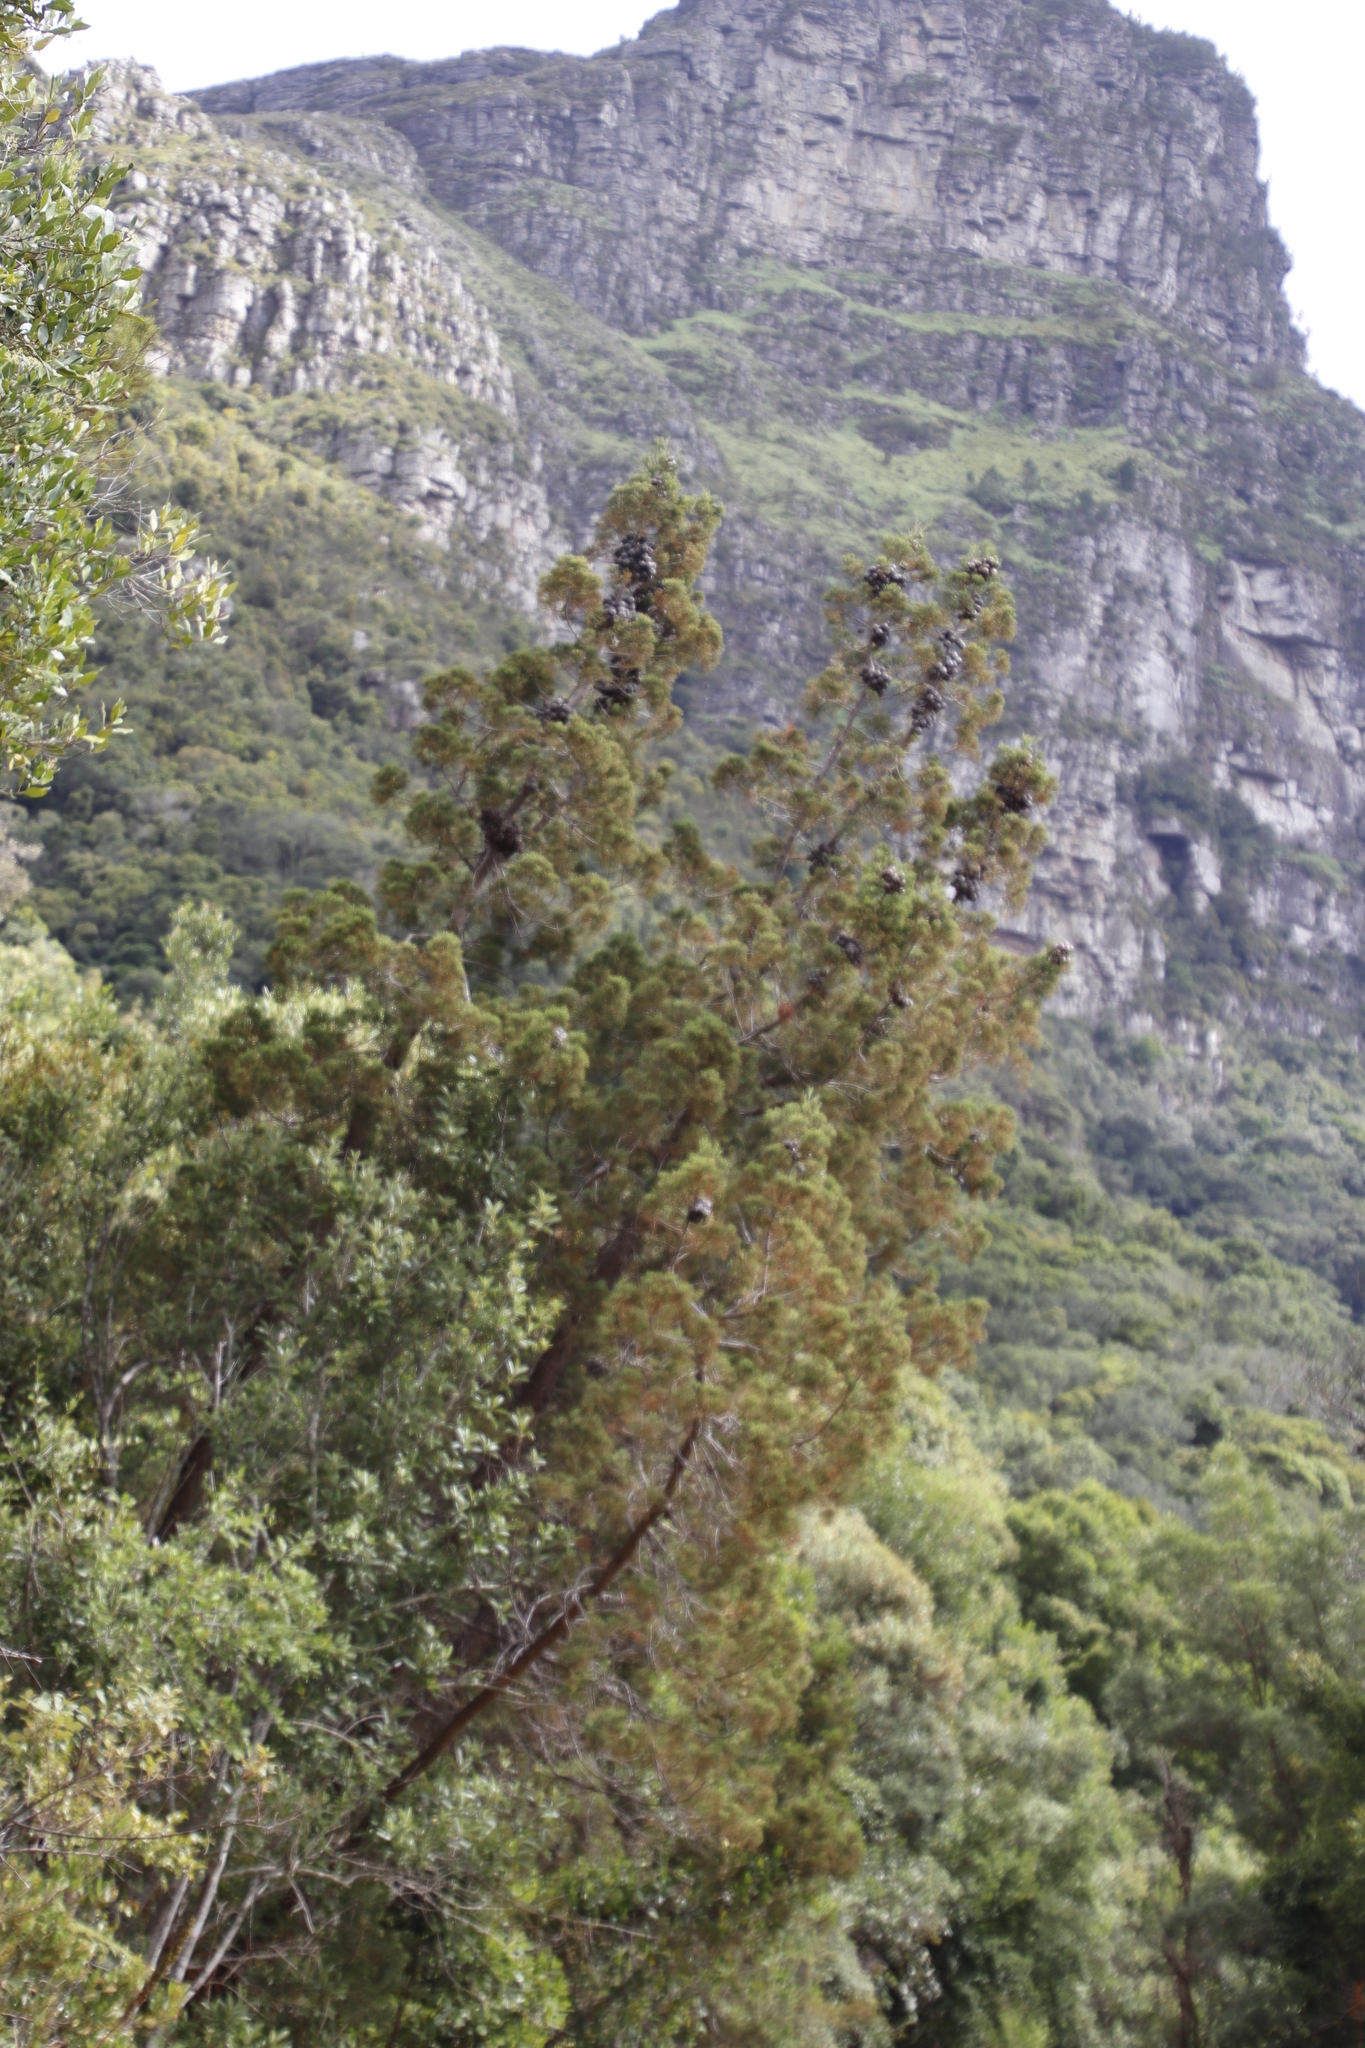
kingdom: Plantae
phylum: Tracheophyta
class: Pinopsida
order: Pinales
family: Cupressaceae
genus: Widdringtonia
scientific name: Widdringtonia nodiflora
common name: Cape cypress
